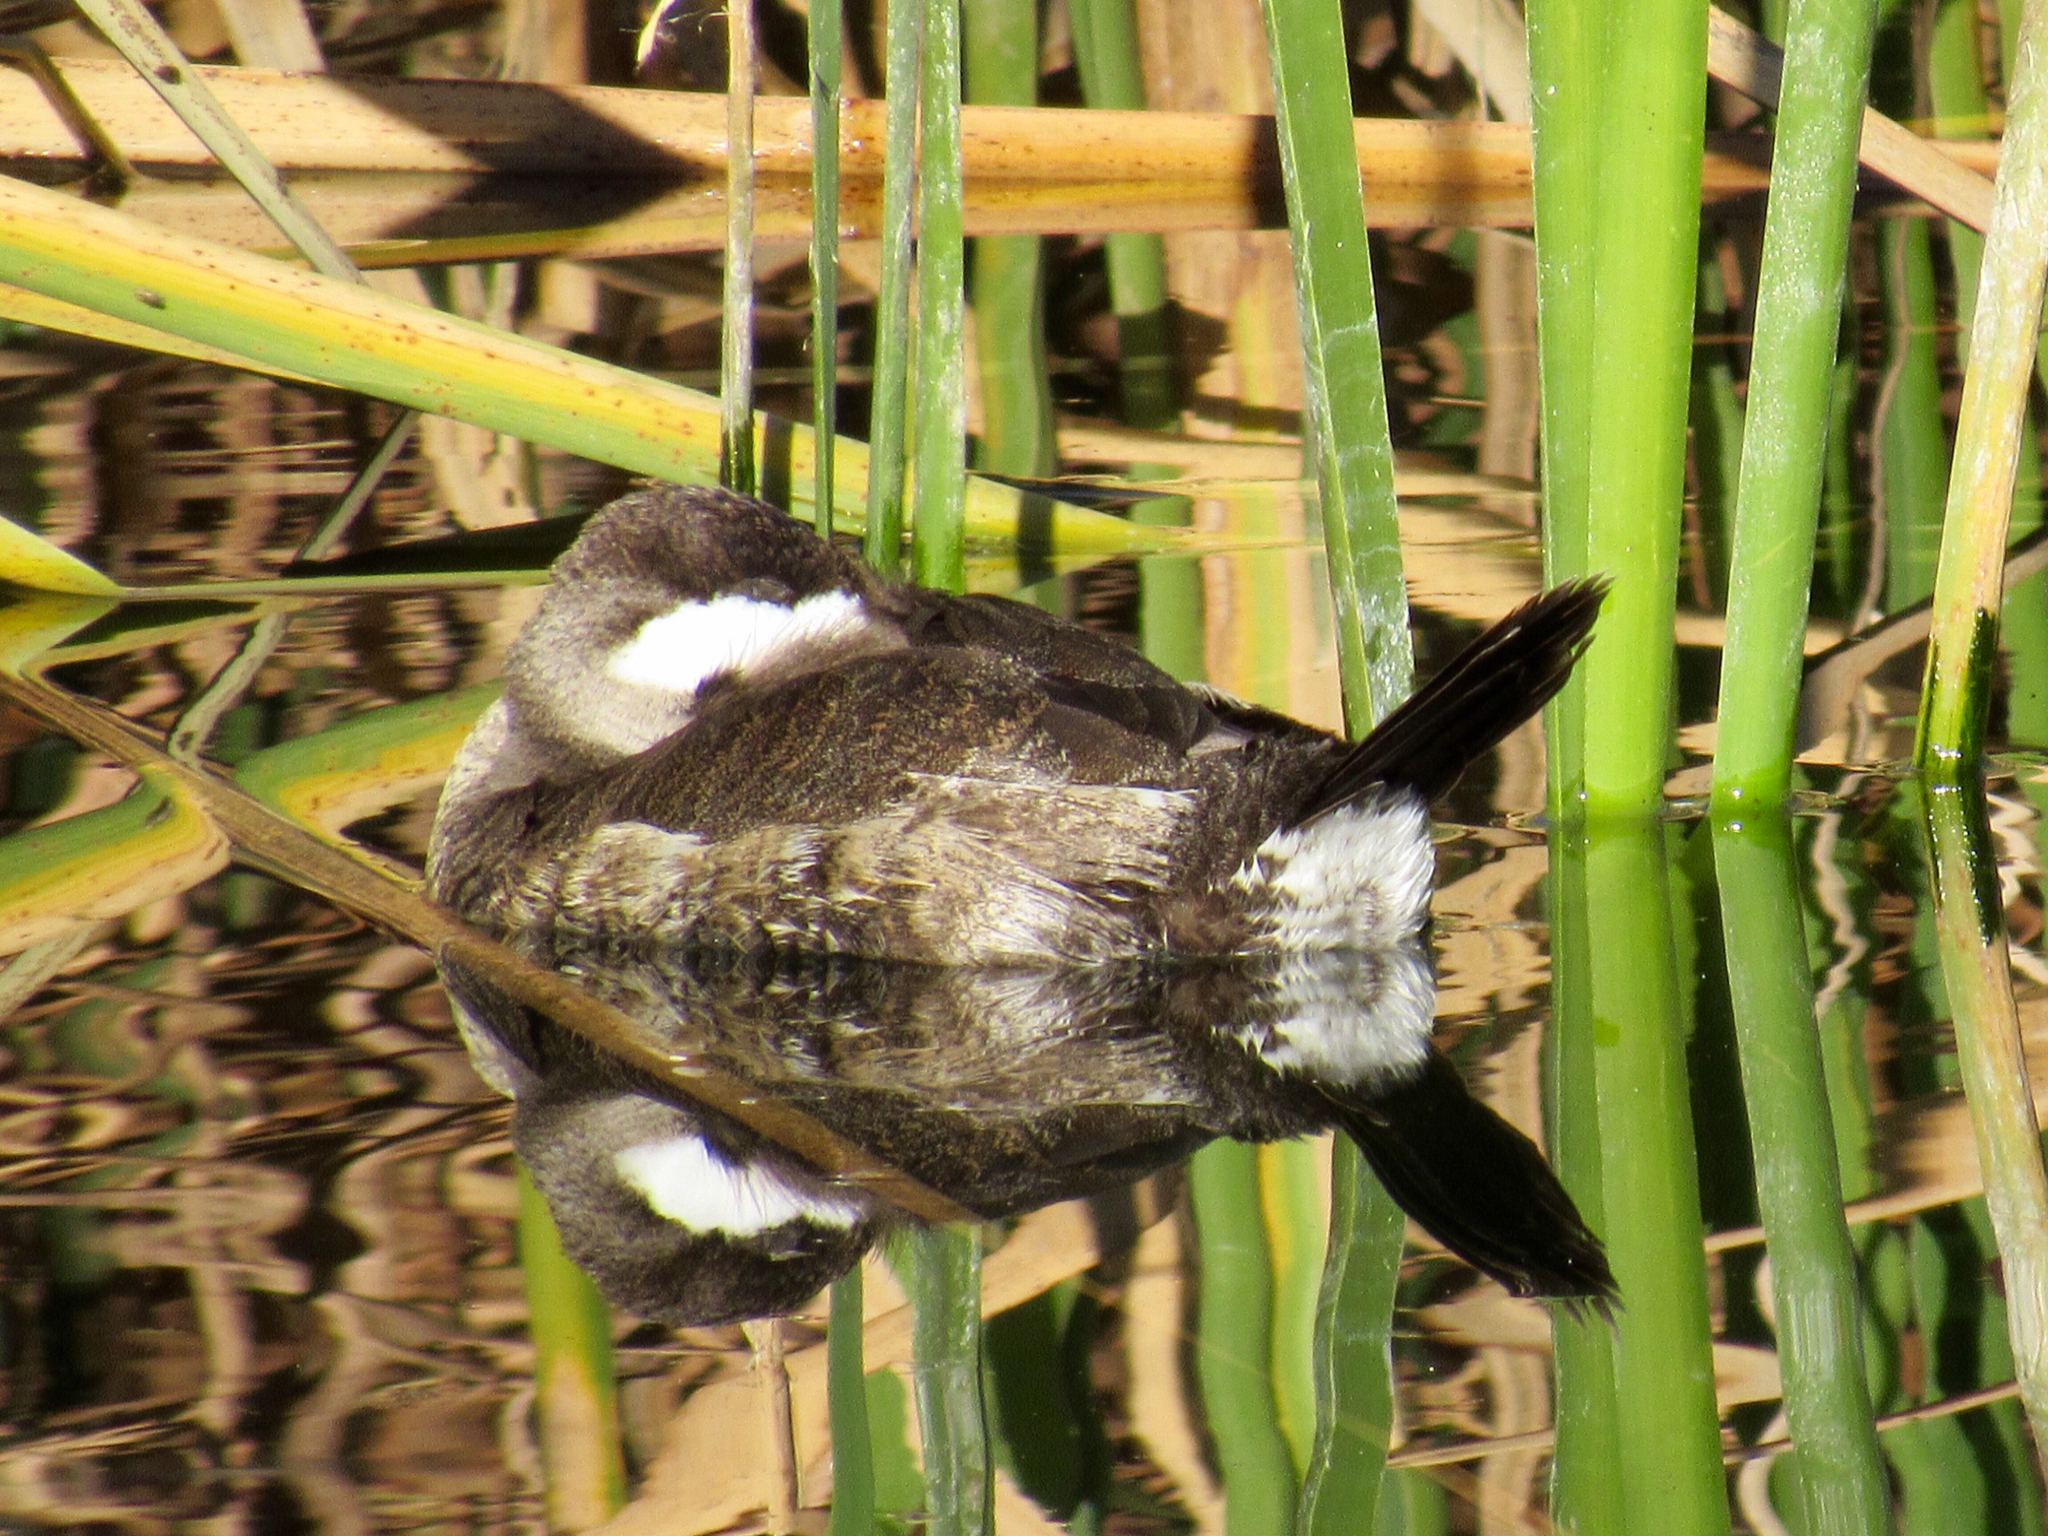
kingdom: Animalia
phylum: Chordata
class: Aves
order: Anseriformes
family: Anatidae
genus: Oxyura
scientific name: Oxyura jamaicensis
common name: Ruddy duck
